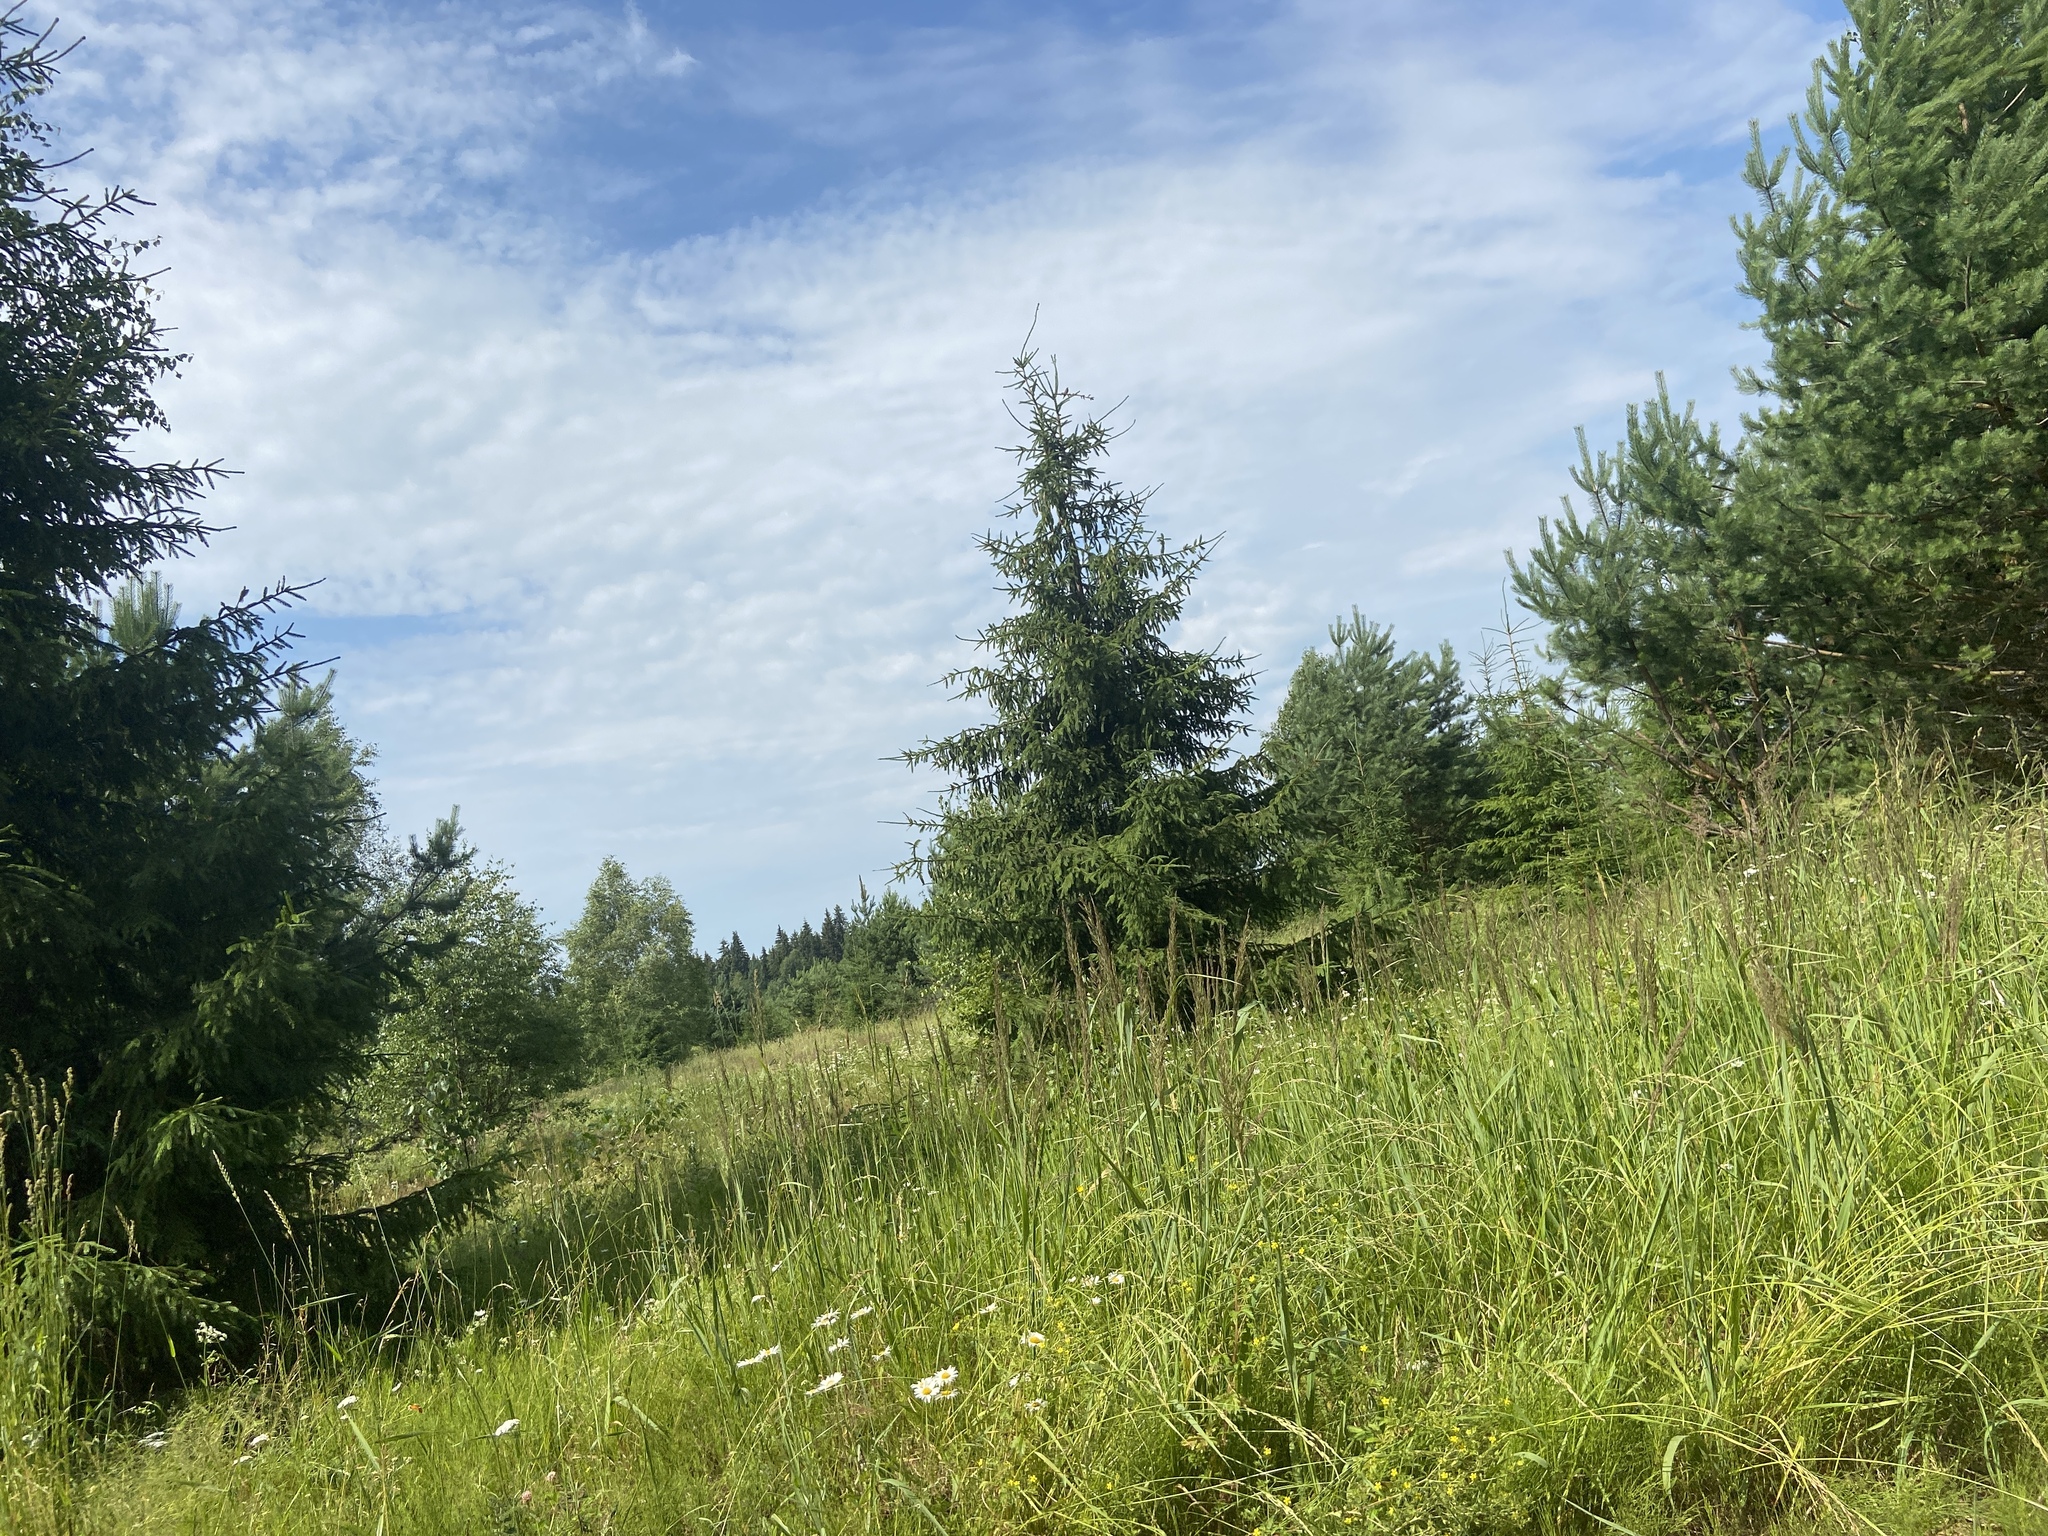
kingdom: Plantae
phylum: Tracheophyta
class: Pinopsida
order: Pinales
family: Pinaceae
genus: Picea
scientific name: Picea abies
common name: Norway spruce
